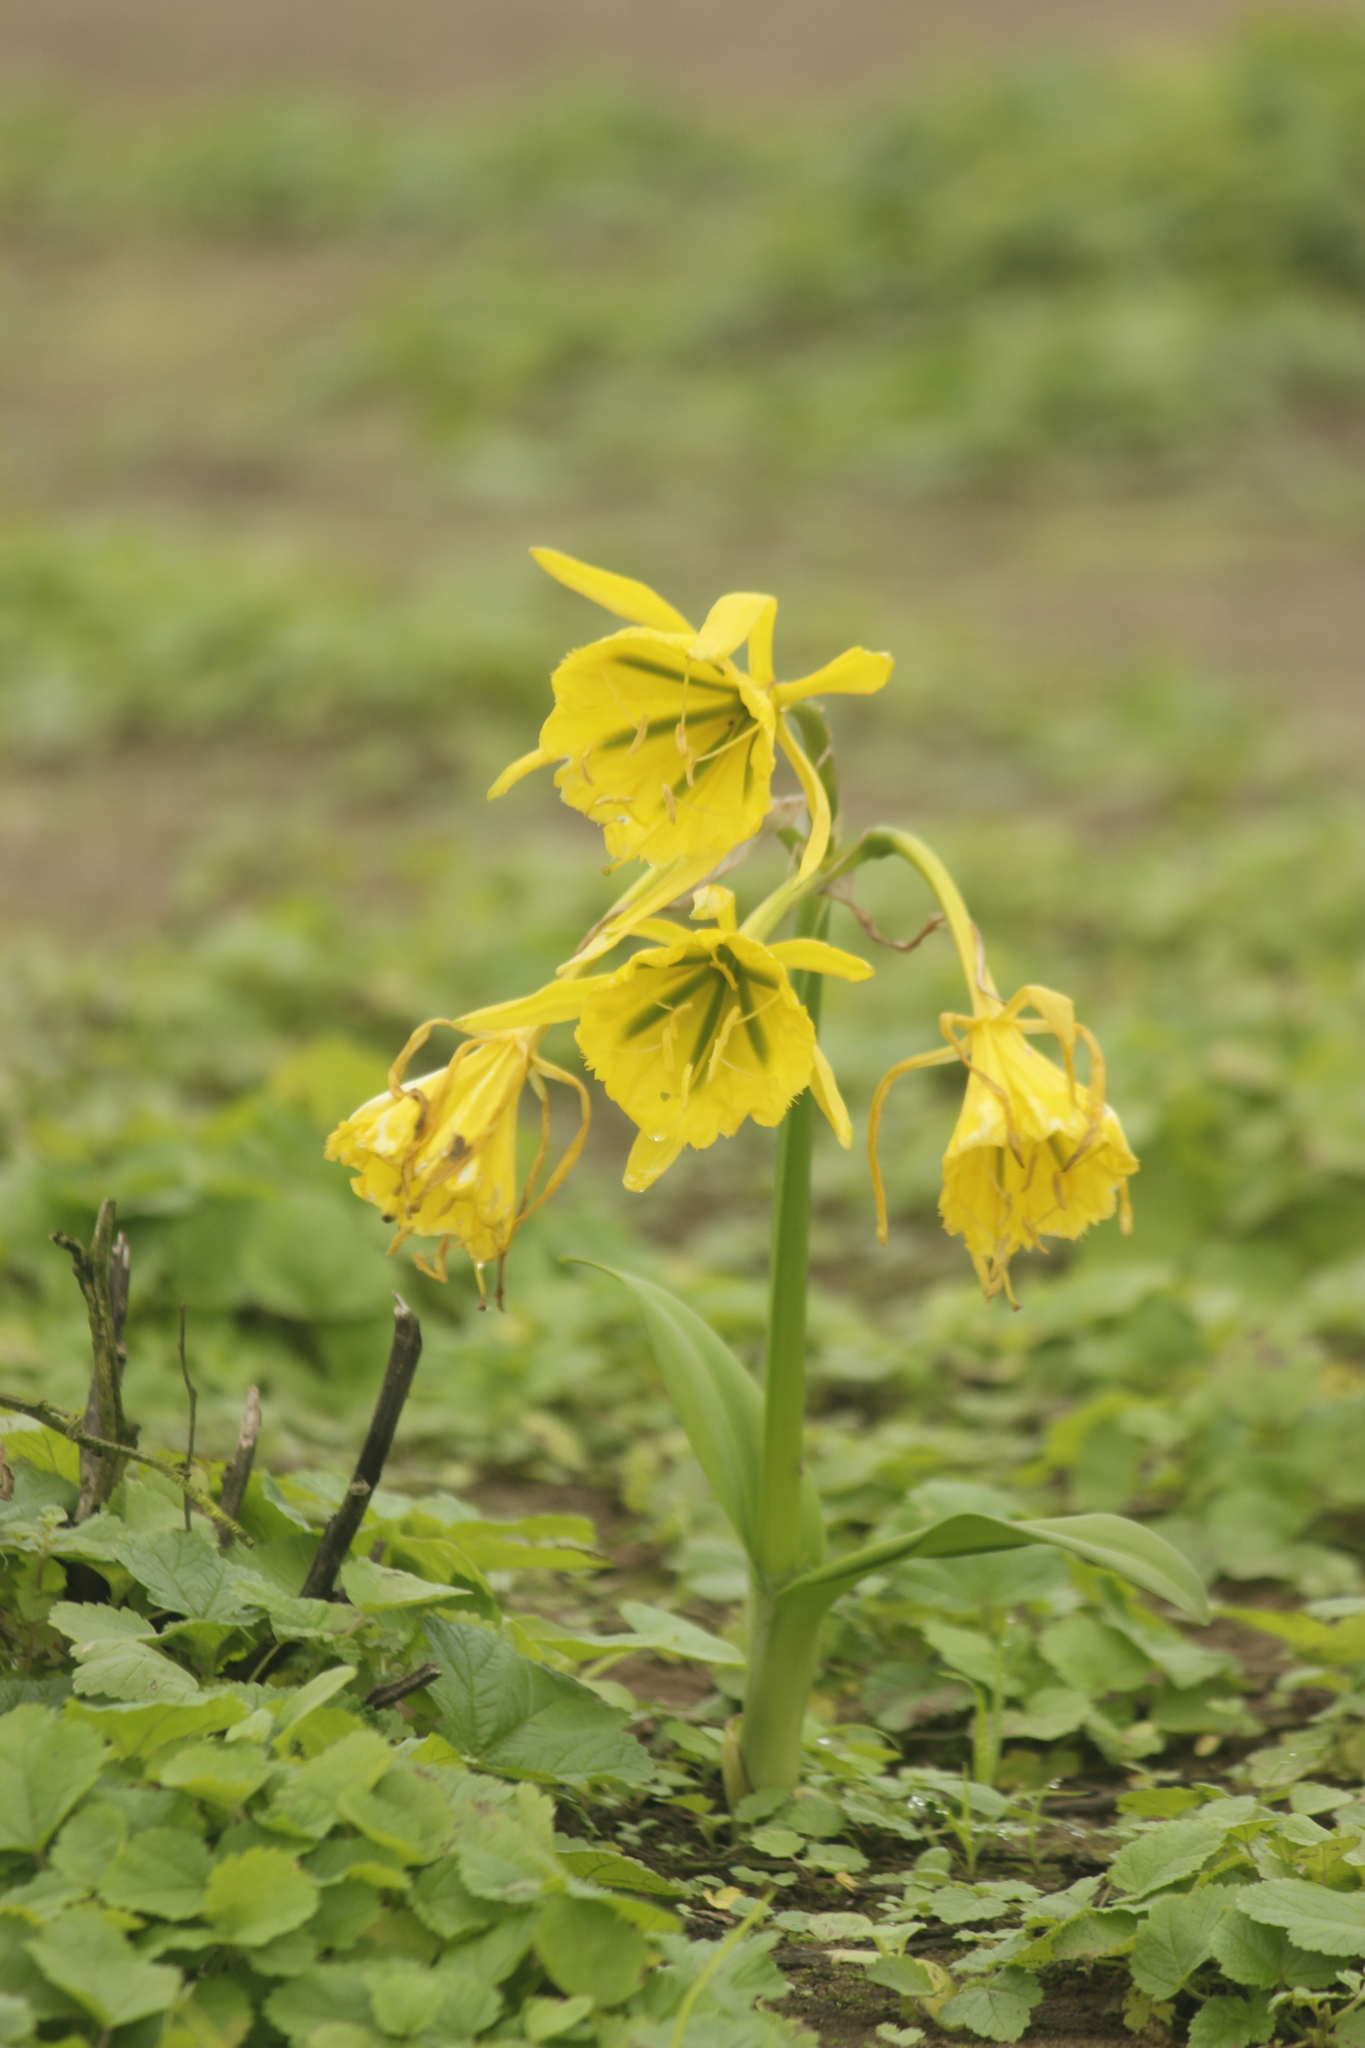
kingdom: Plantae
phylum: Tracheophyta
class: Liliopsida
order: Asparagales
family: Amaryllidaceae
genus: Ismene
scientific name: Ismene amancaes
